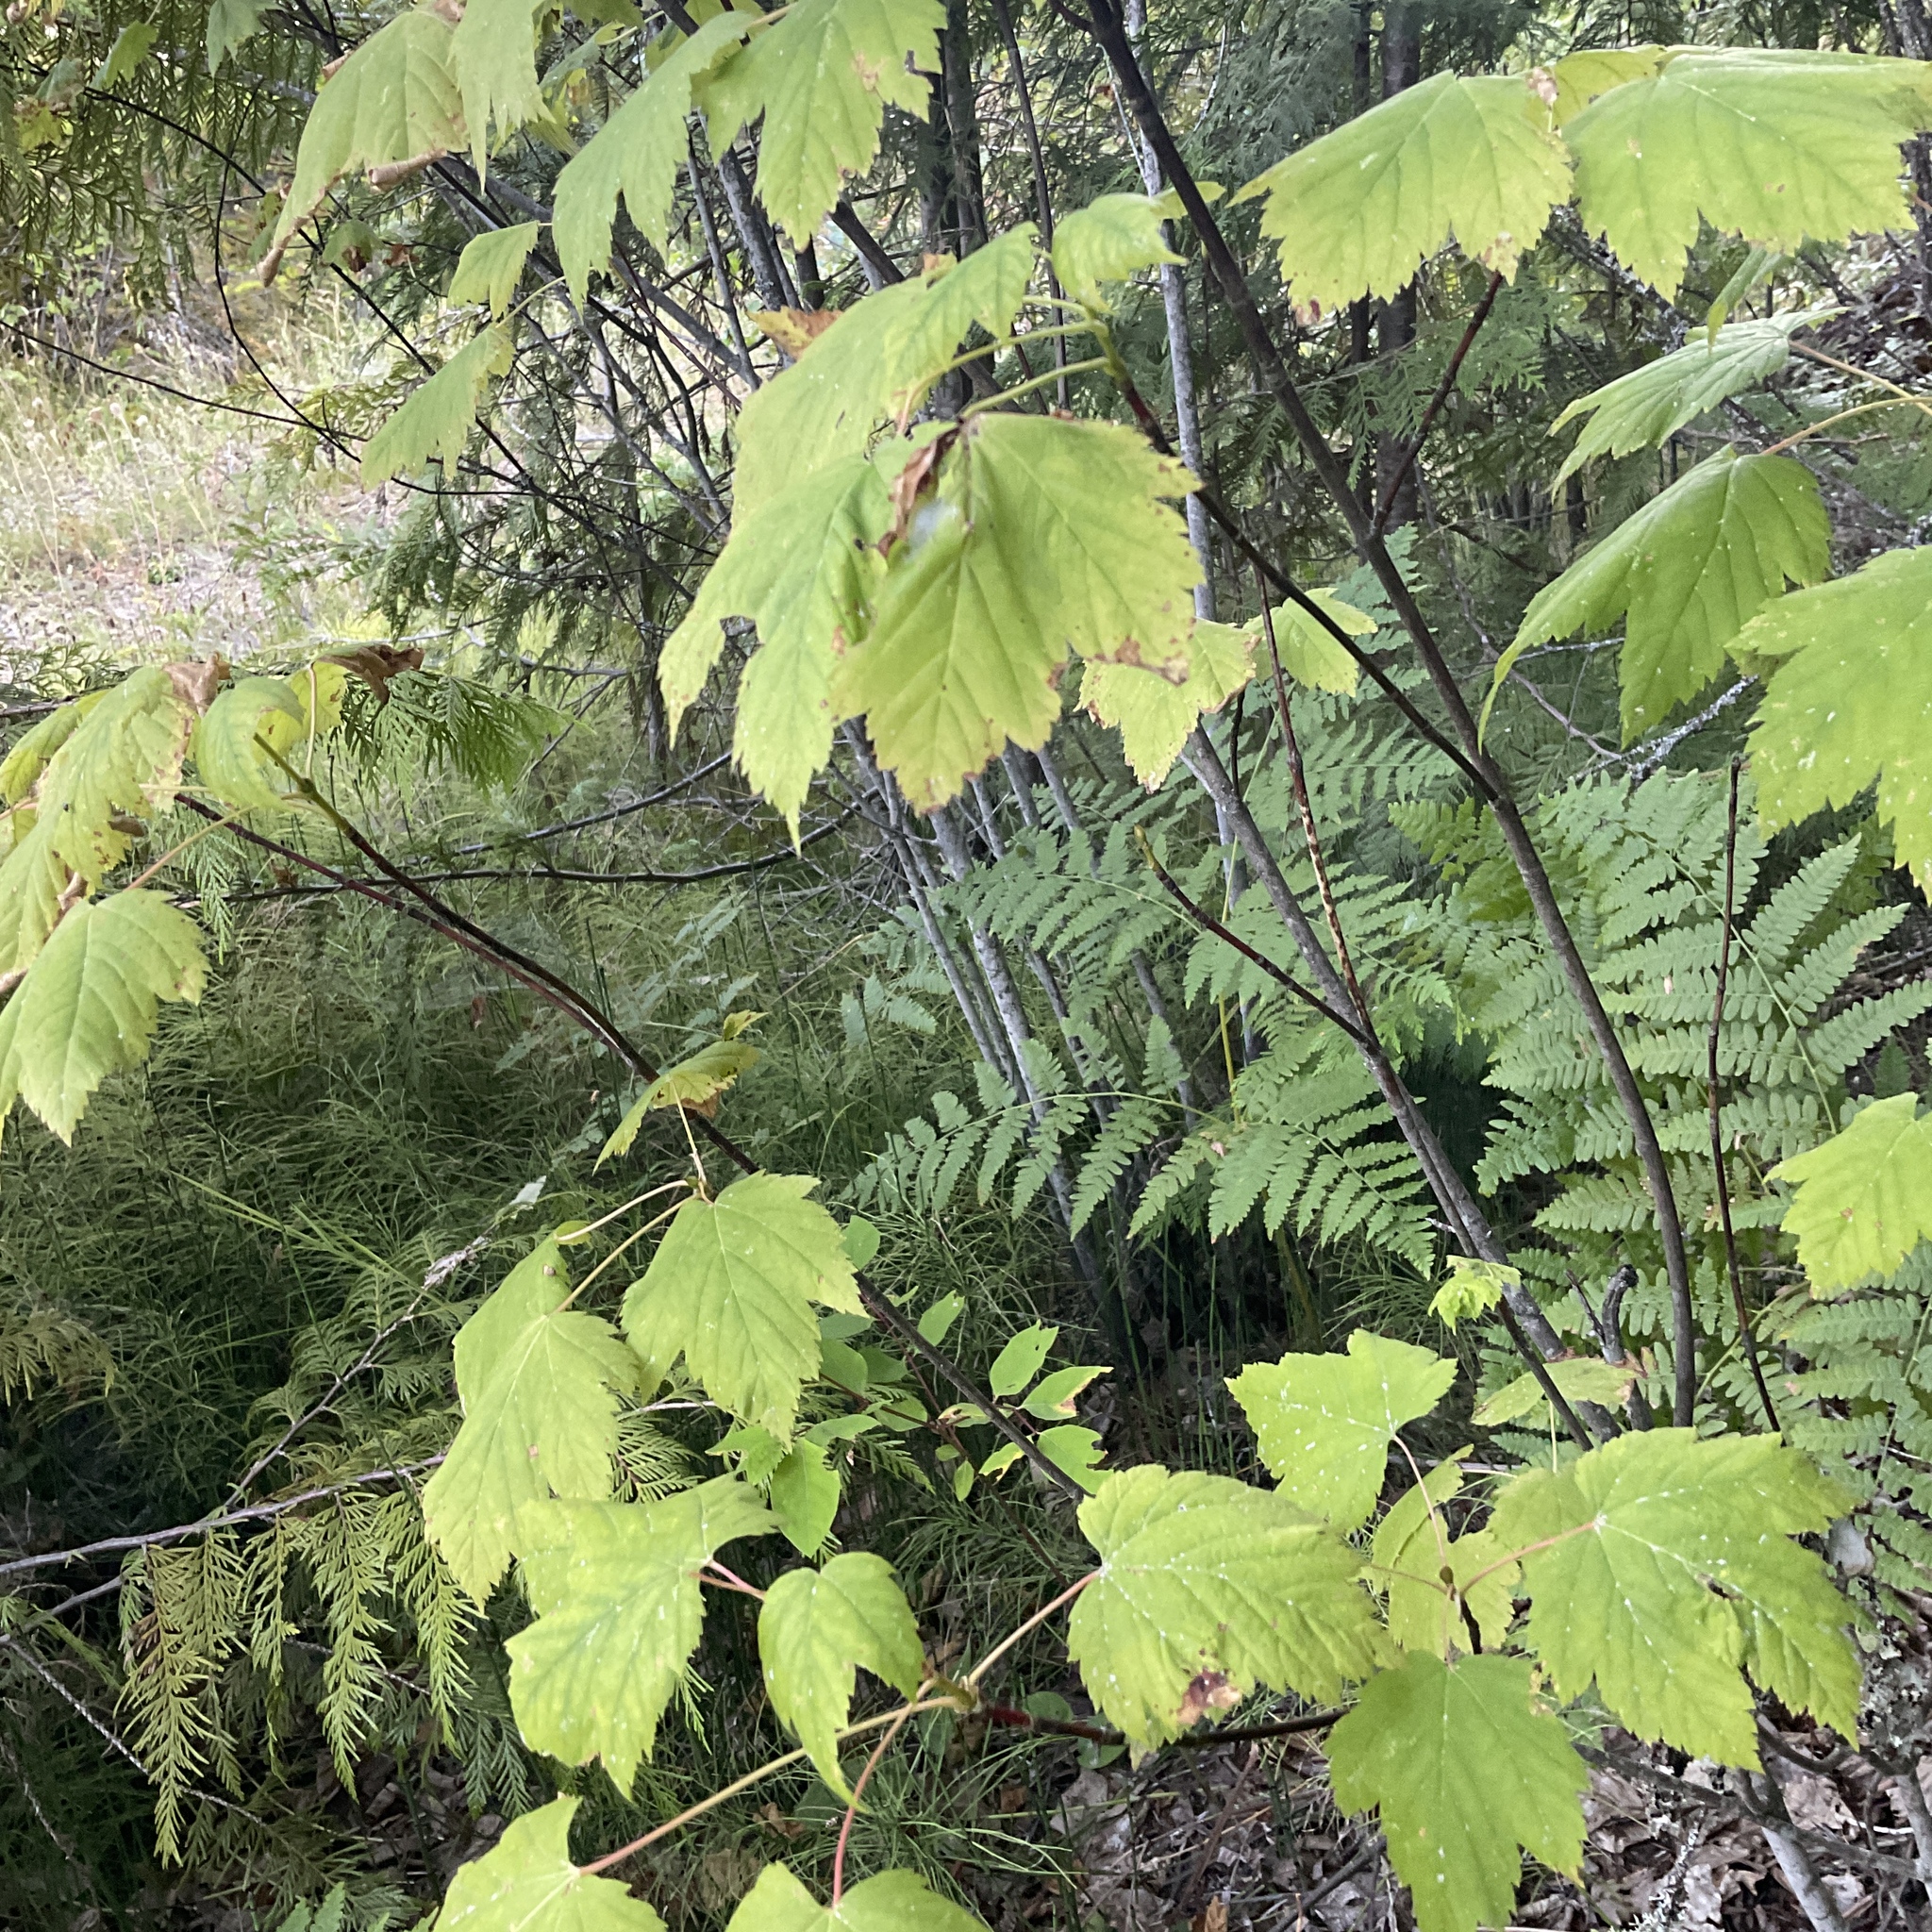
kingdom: Plantae
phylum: Tracheophyta
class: Magnoliopsida
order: Sapindales
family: Sapindaceae
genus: Acer
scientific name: Acer glabrum
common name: Rocky mountain maple
